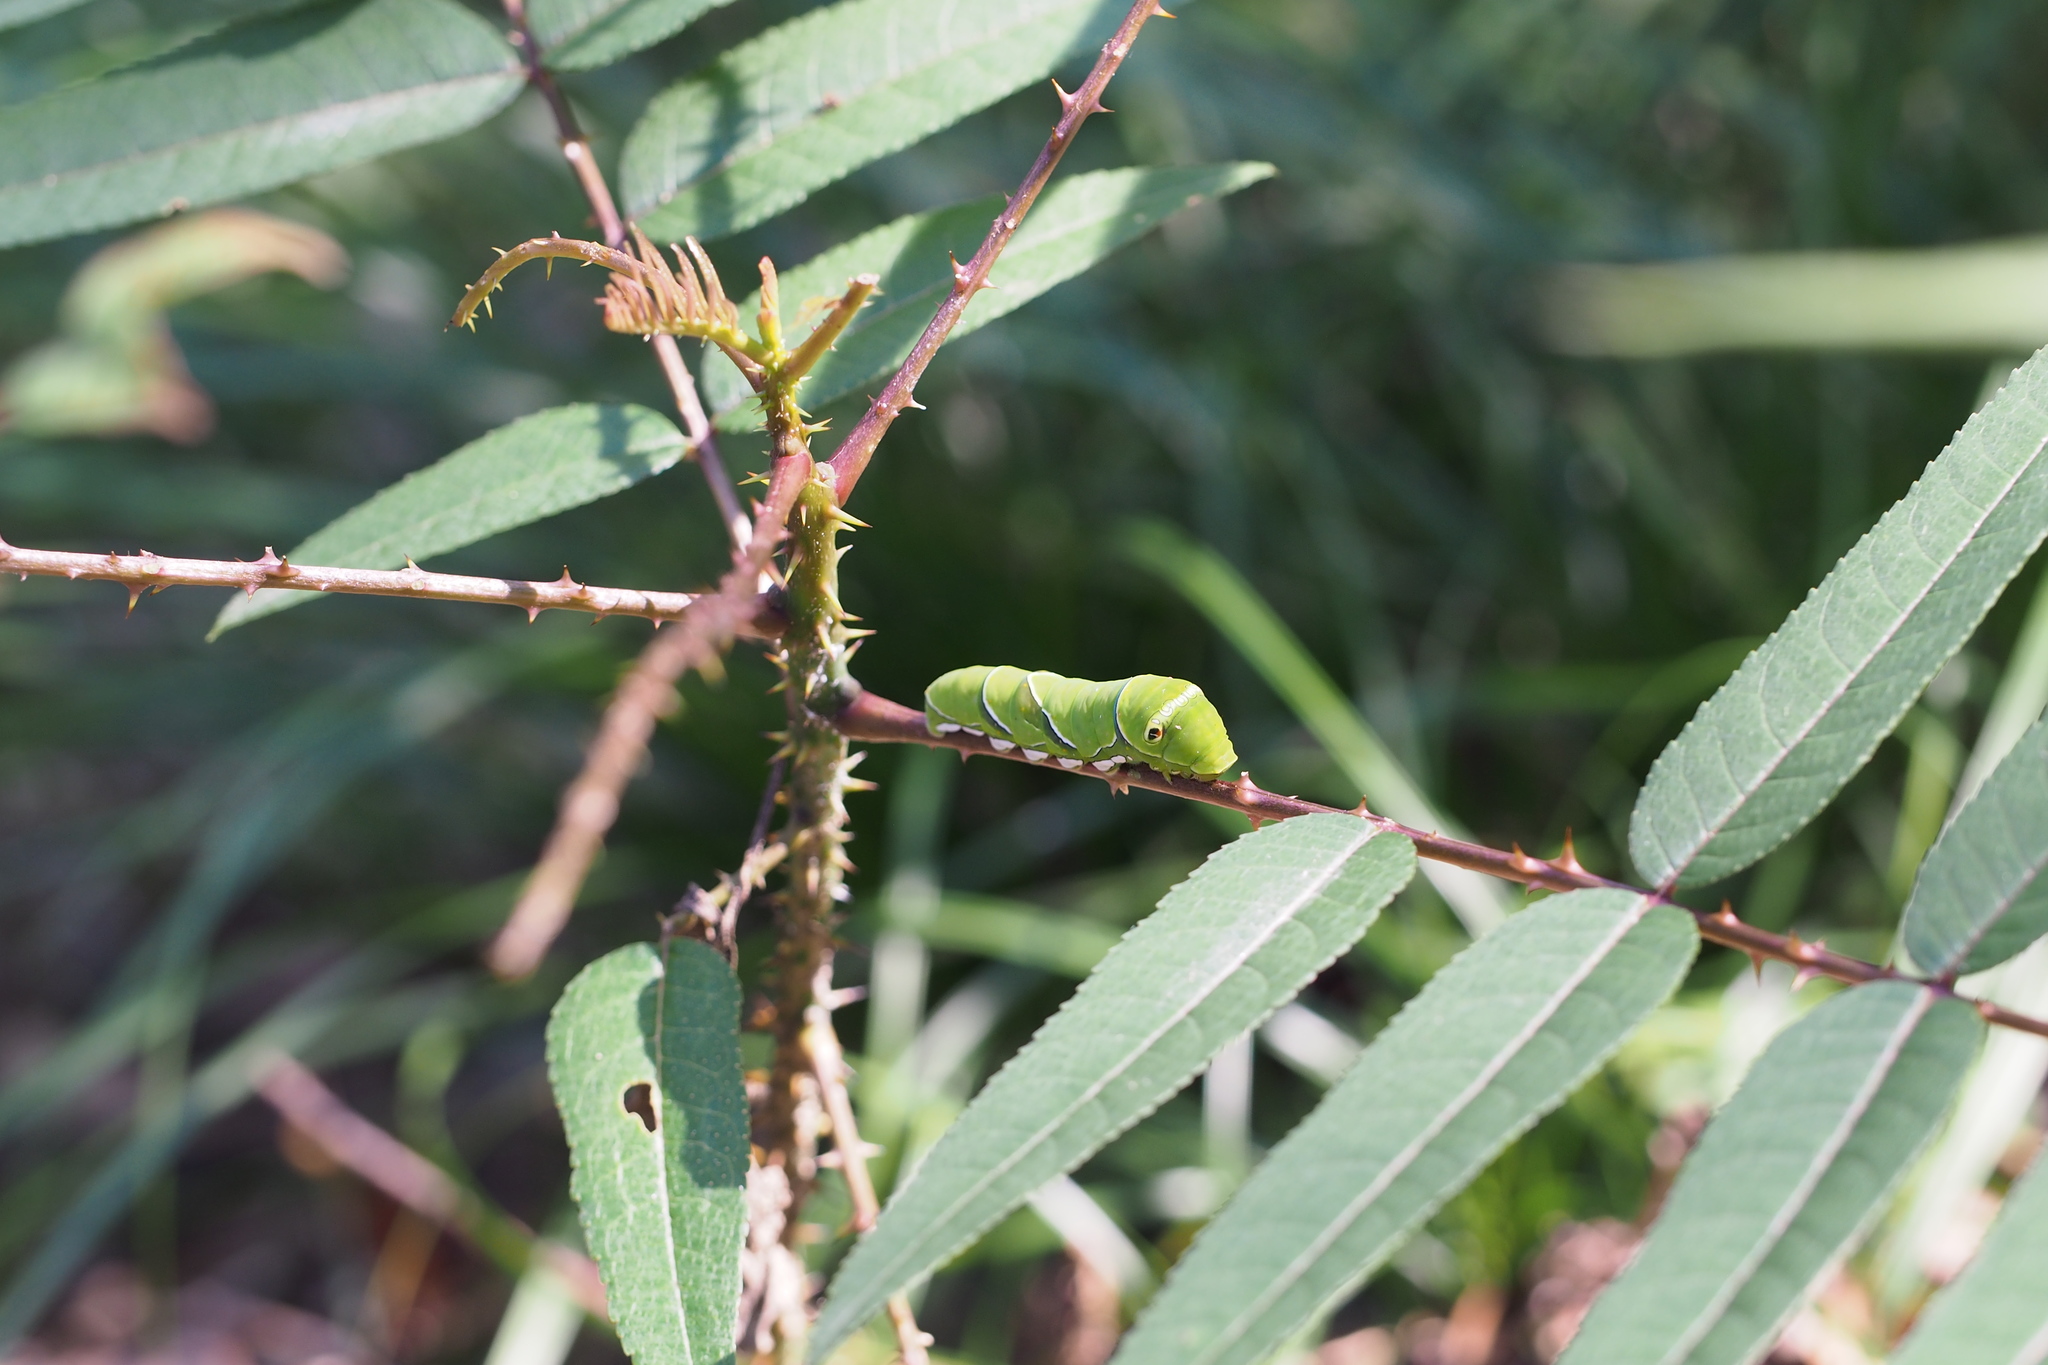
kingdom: Animalia
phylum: Arthropoda
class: Insecta
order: Lepidoptera
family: Papilionidae
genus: Papilio
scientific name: Papilio xuthus
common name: Asian swallowtail
